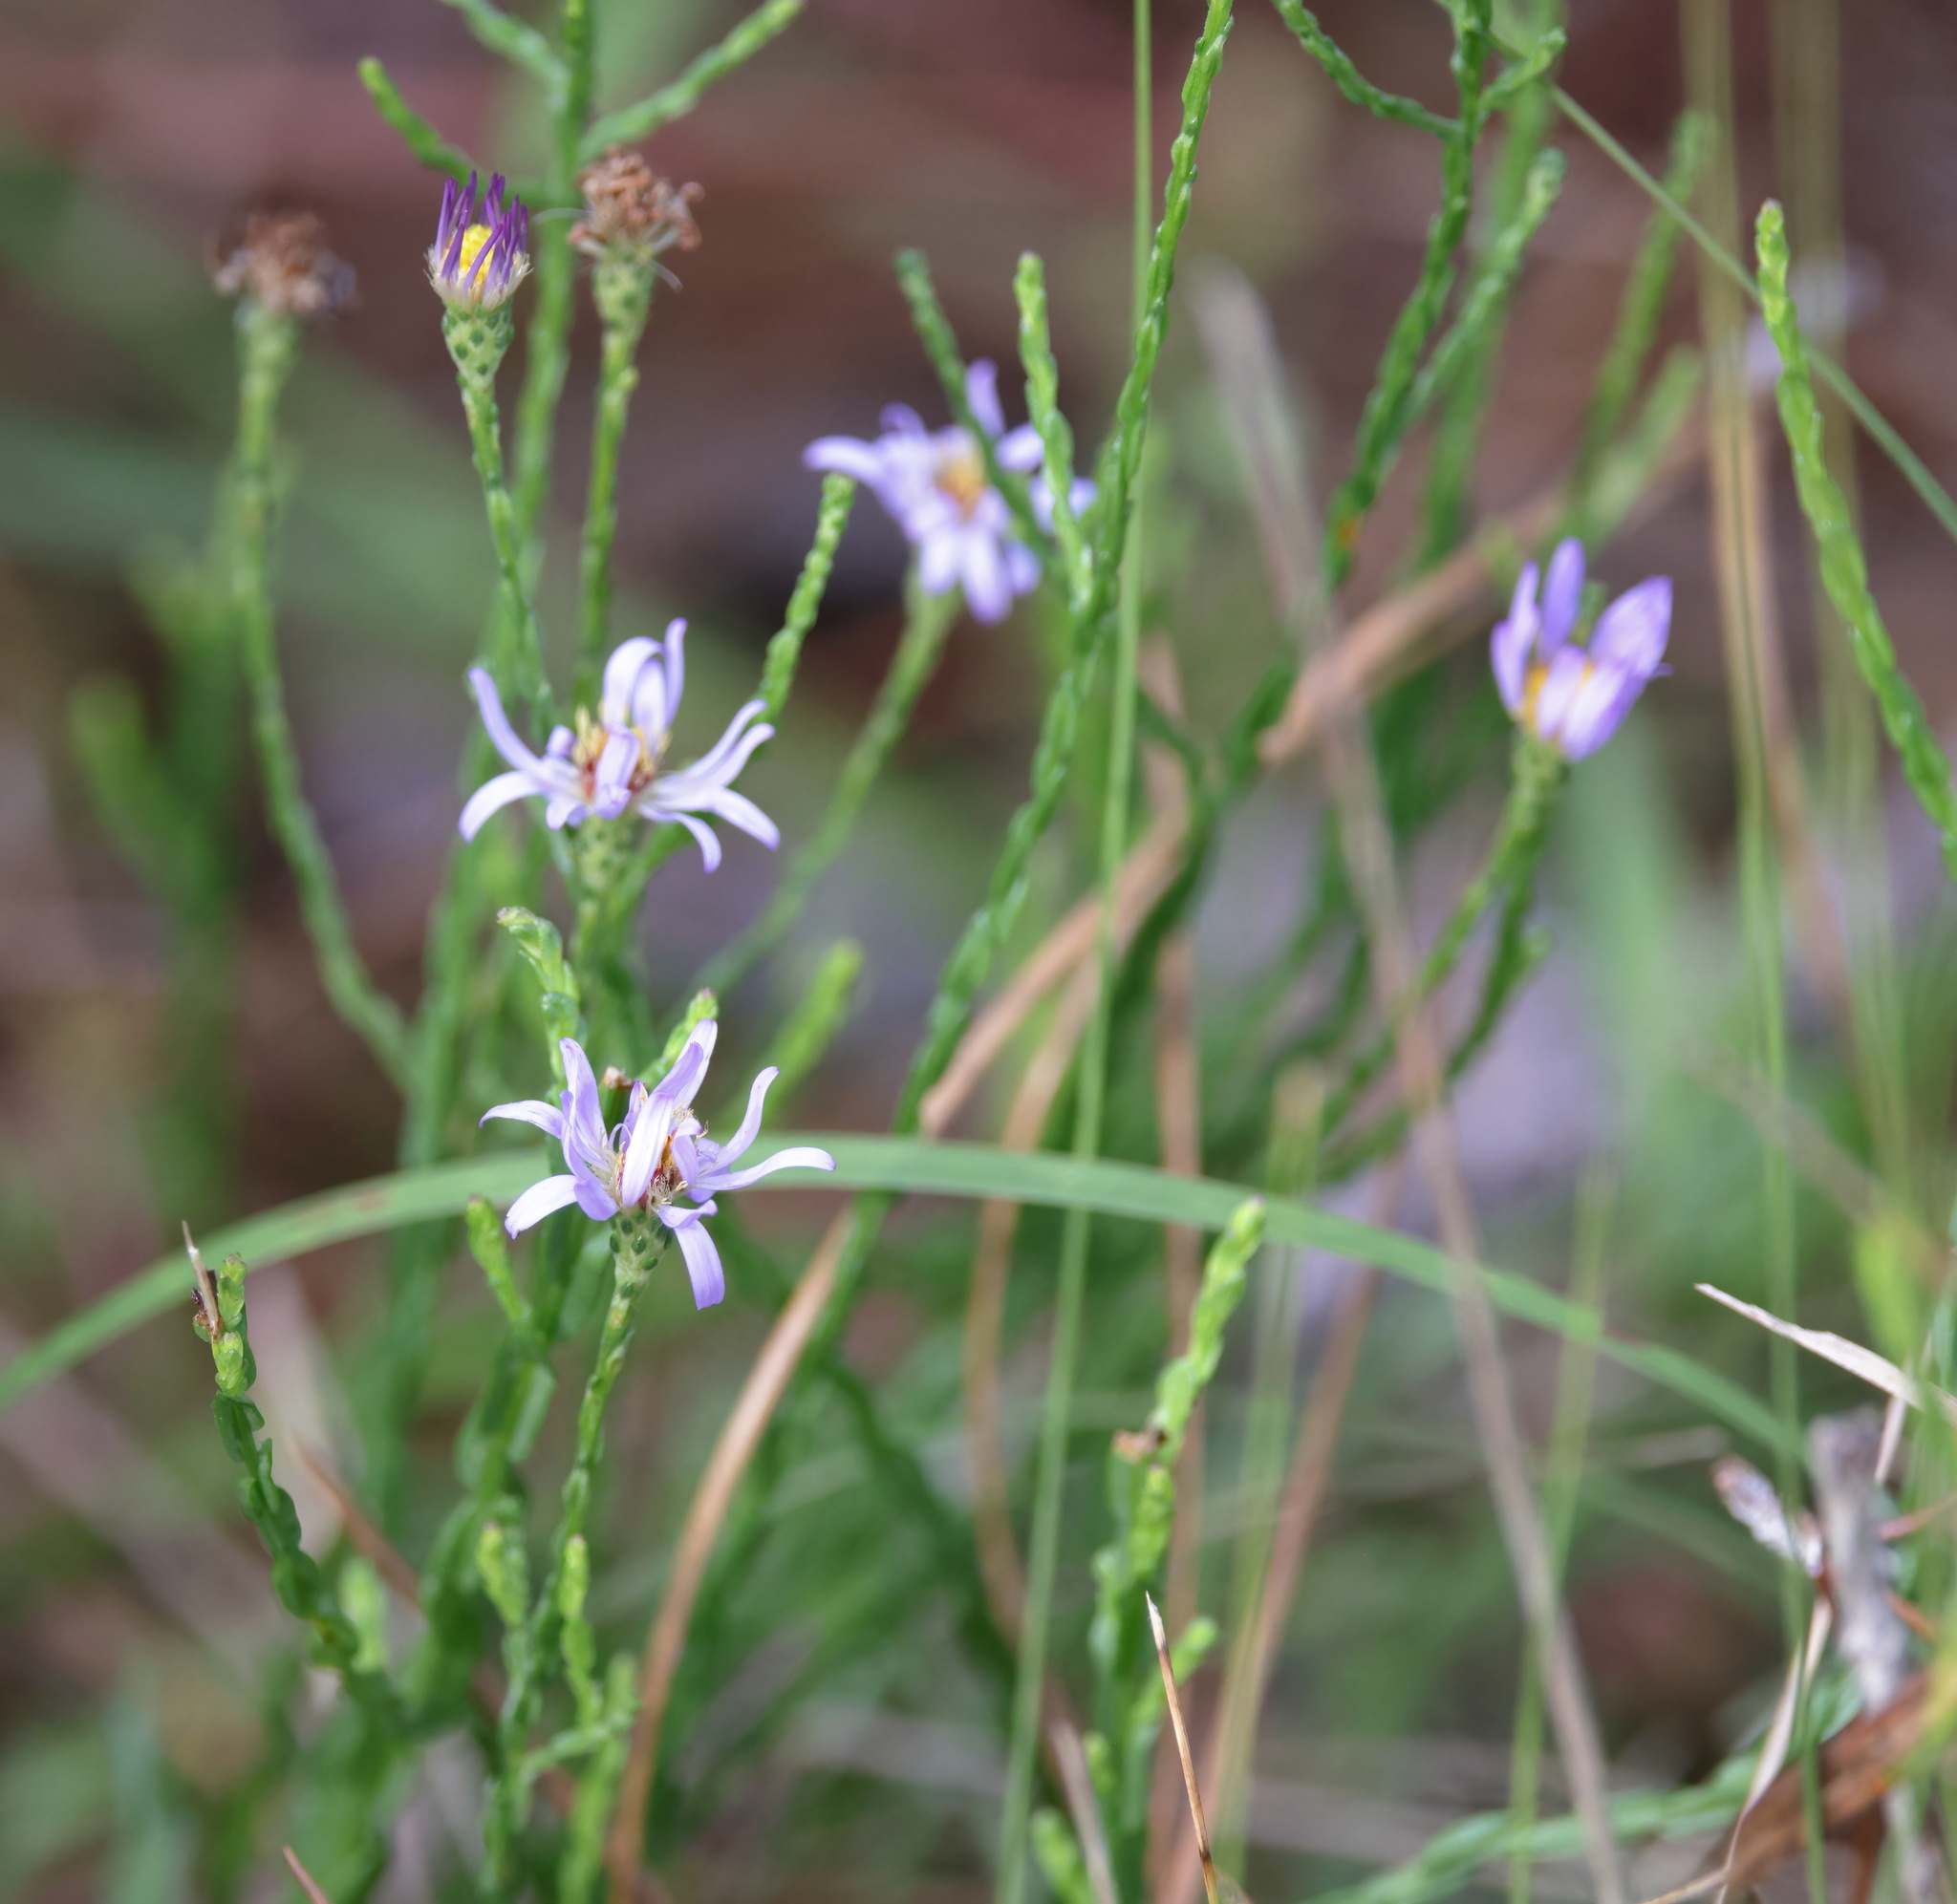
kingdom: Plantae
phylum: Tracheophyta
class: Magnoliopsida
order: Asterales
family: Asteraceae
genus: Symphyotrichum
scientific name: Symphyotrichum adnatum
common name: Scale-leaf aster
